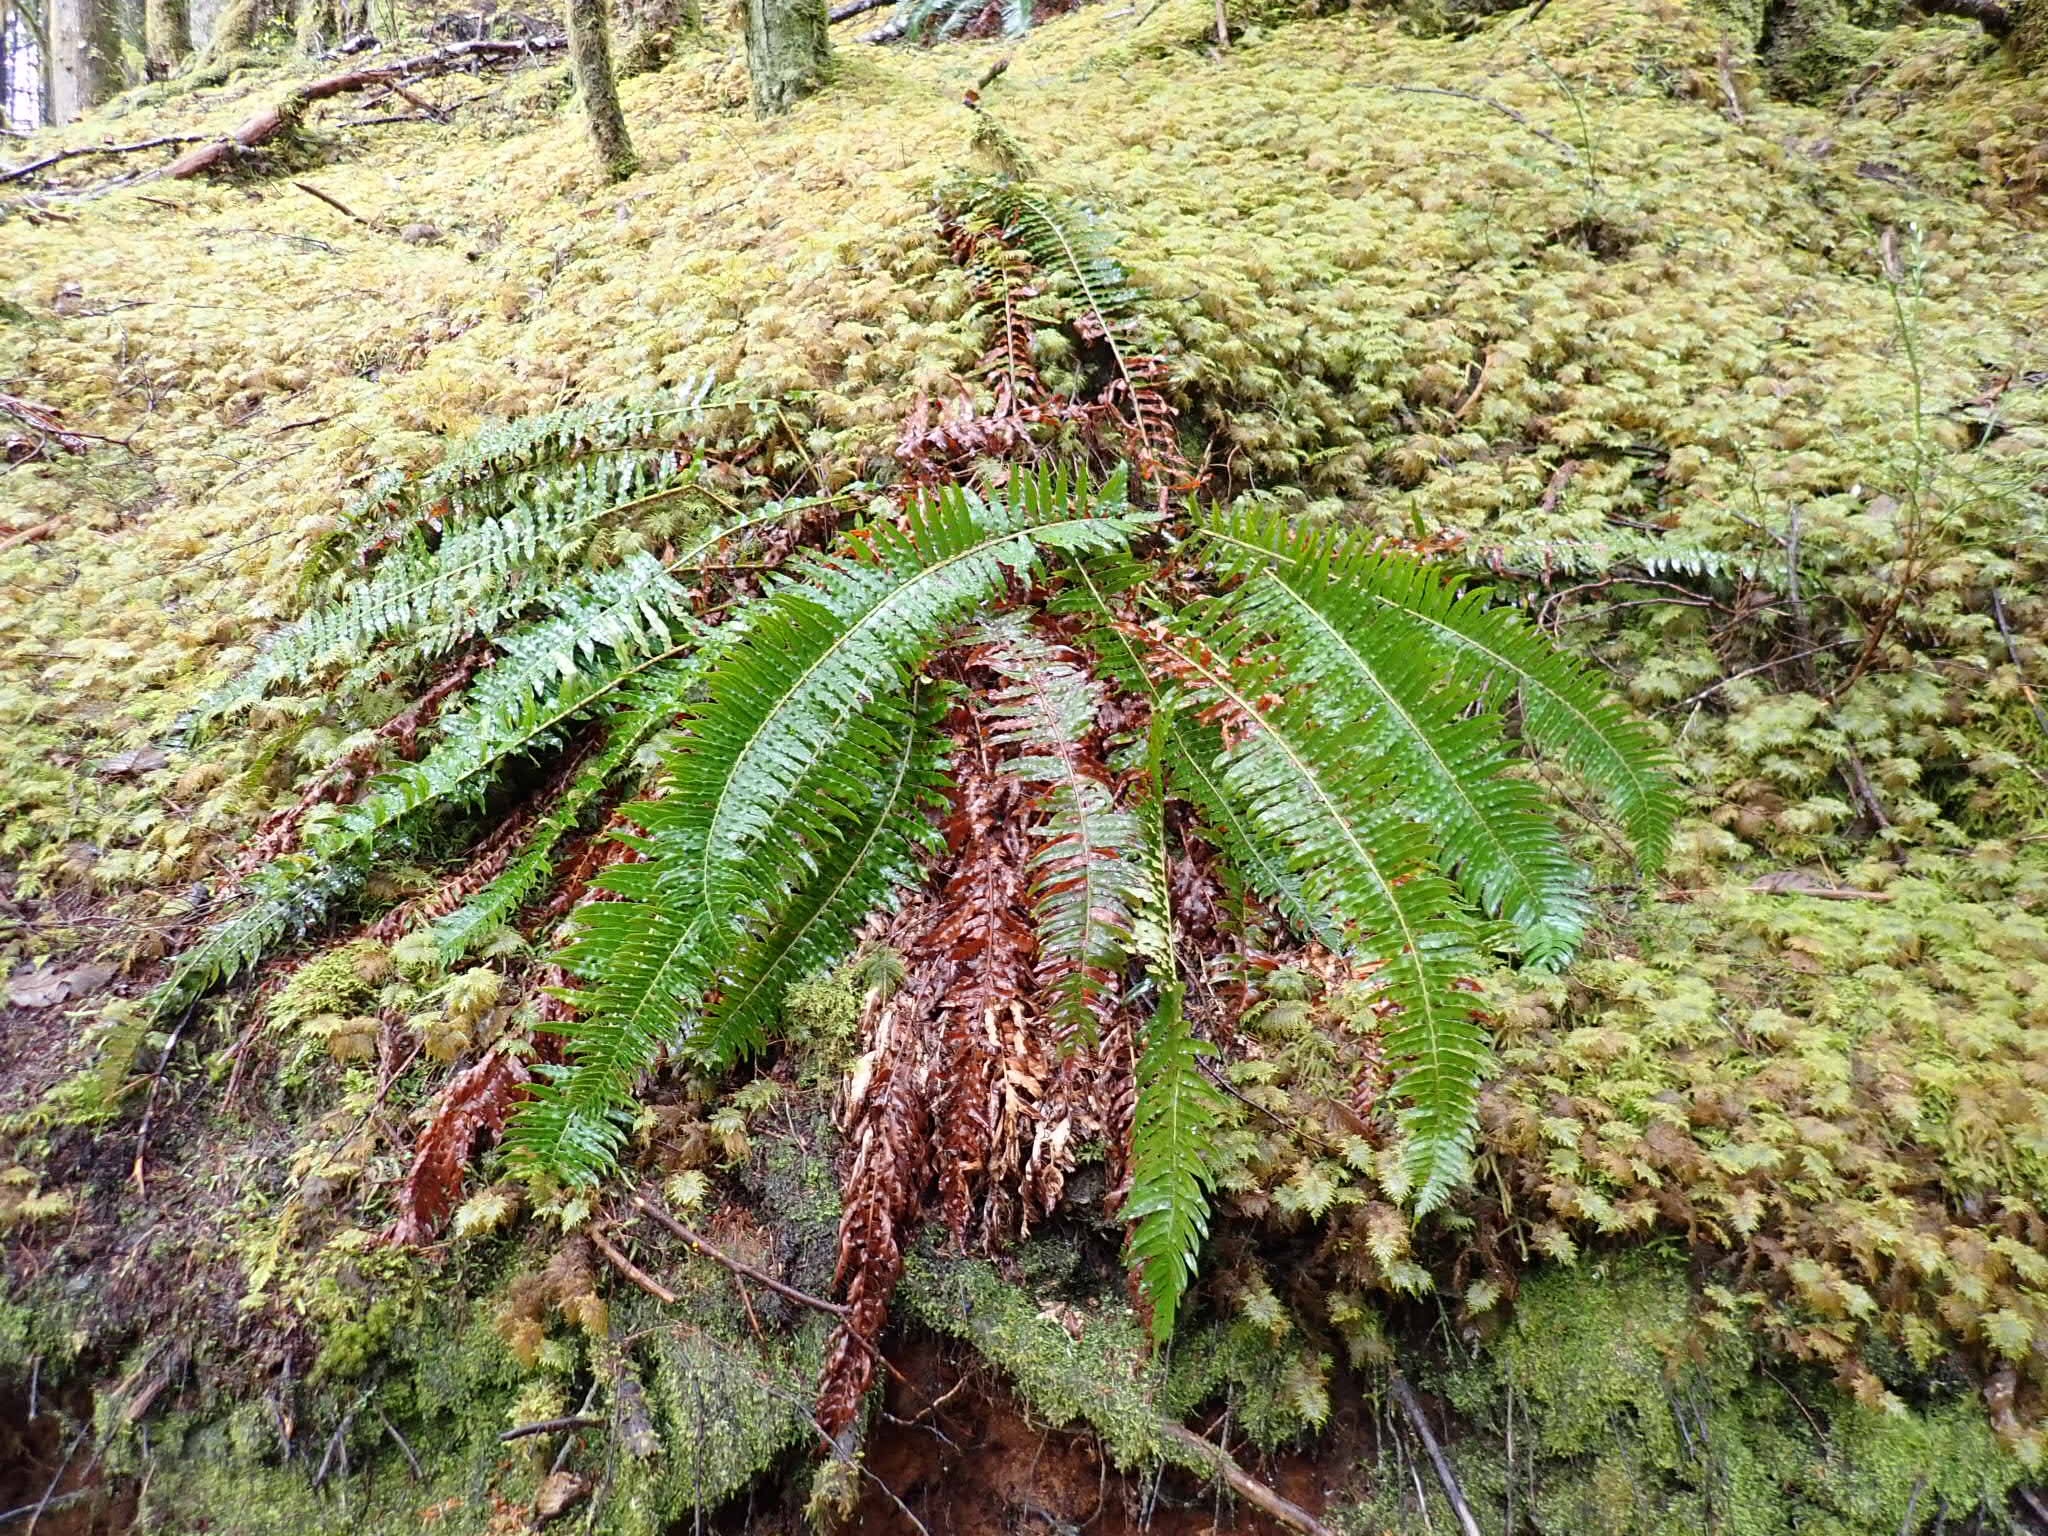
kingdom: Plantae
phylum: Tracheophyta
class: Polypodiopsida
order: Polypodiales
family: Dryopteridaceae
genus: Polystichum
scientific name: Polystichum munitum
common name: Western sword-fern
